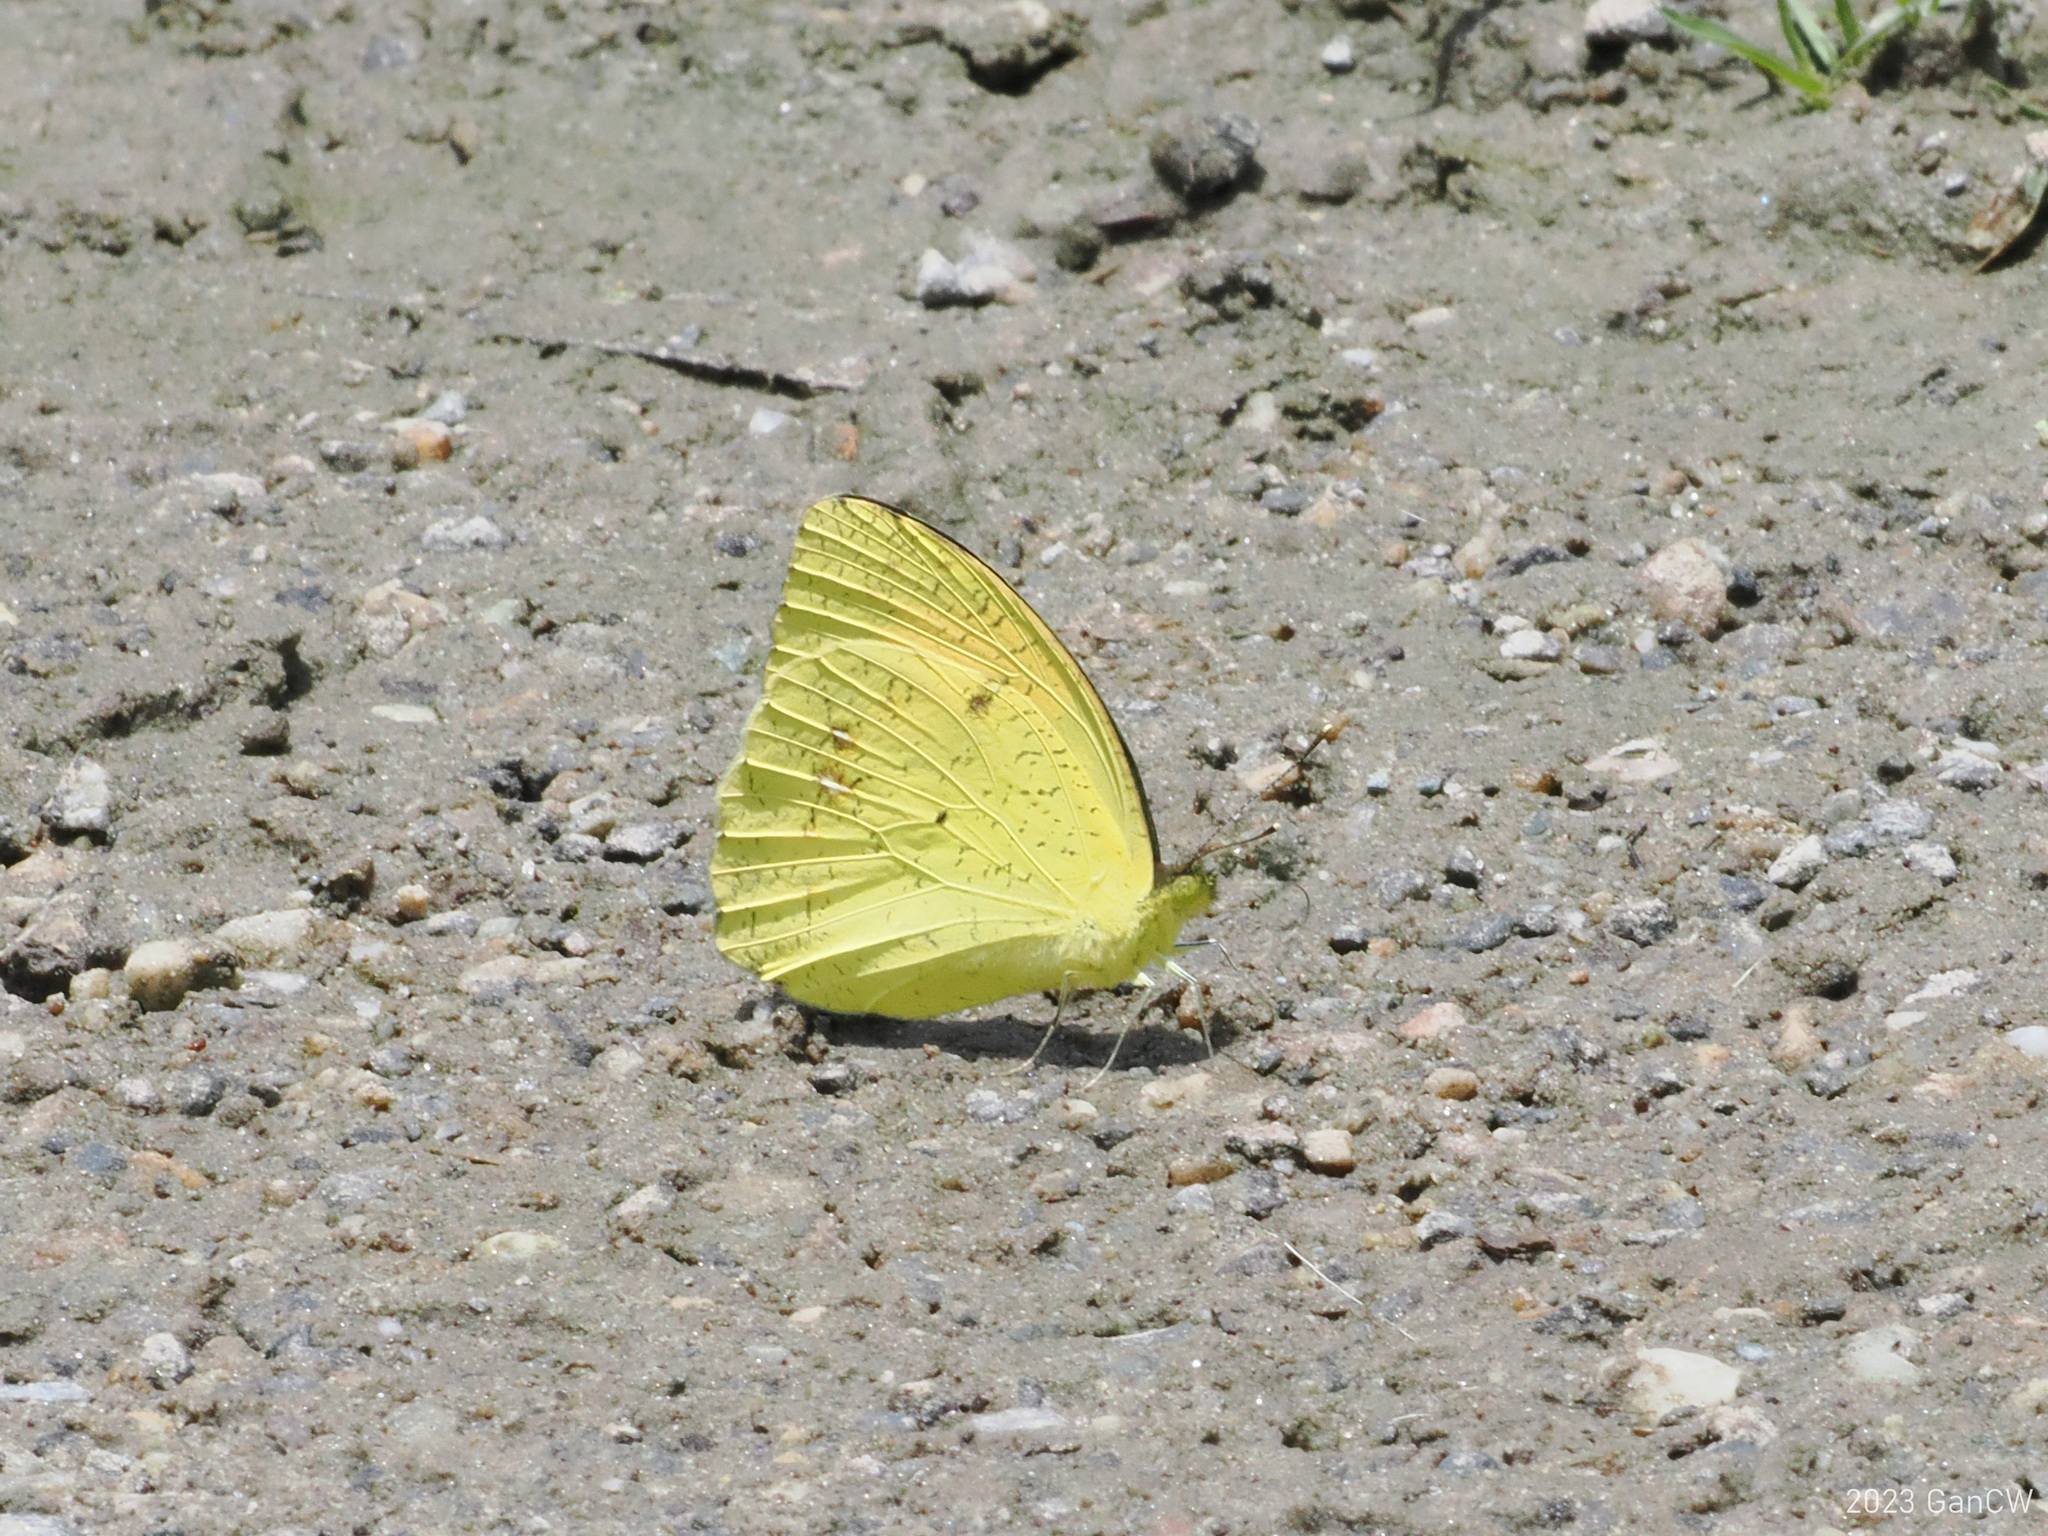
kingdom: Animalia
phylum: Arthropoda
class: Insecta
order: Lepidoptera
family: Pieridae
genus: Ixias
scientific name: Ixias pyrene
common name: Yellow orange tip
